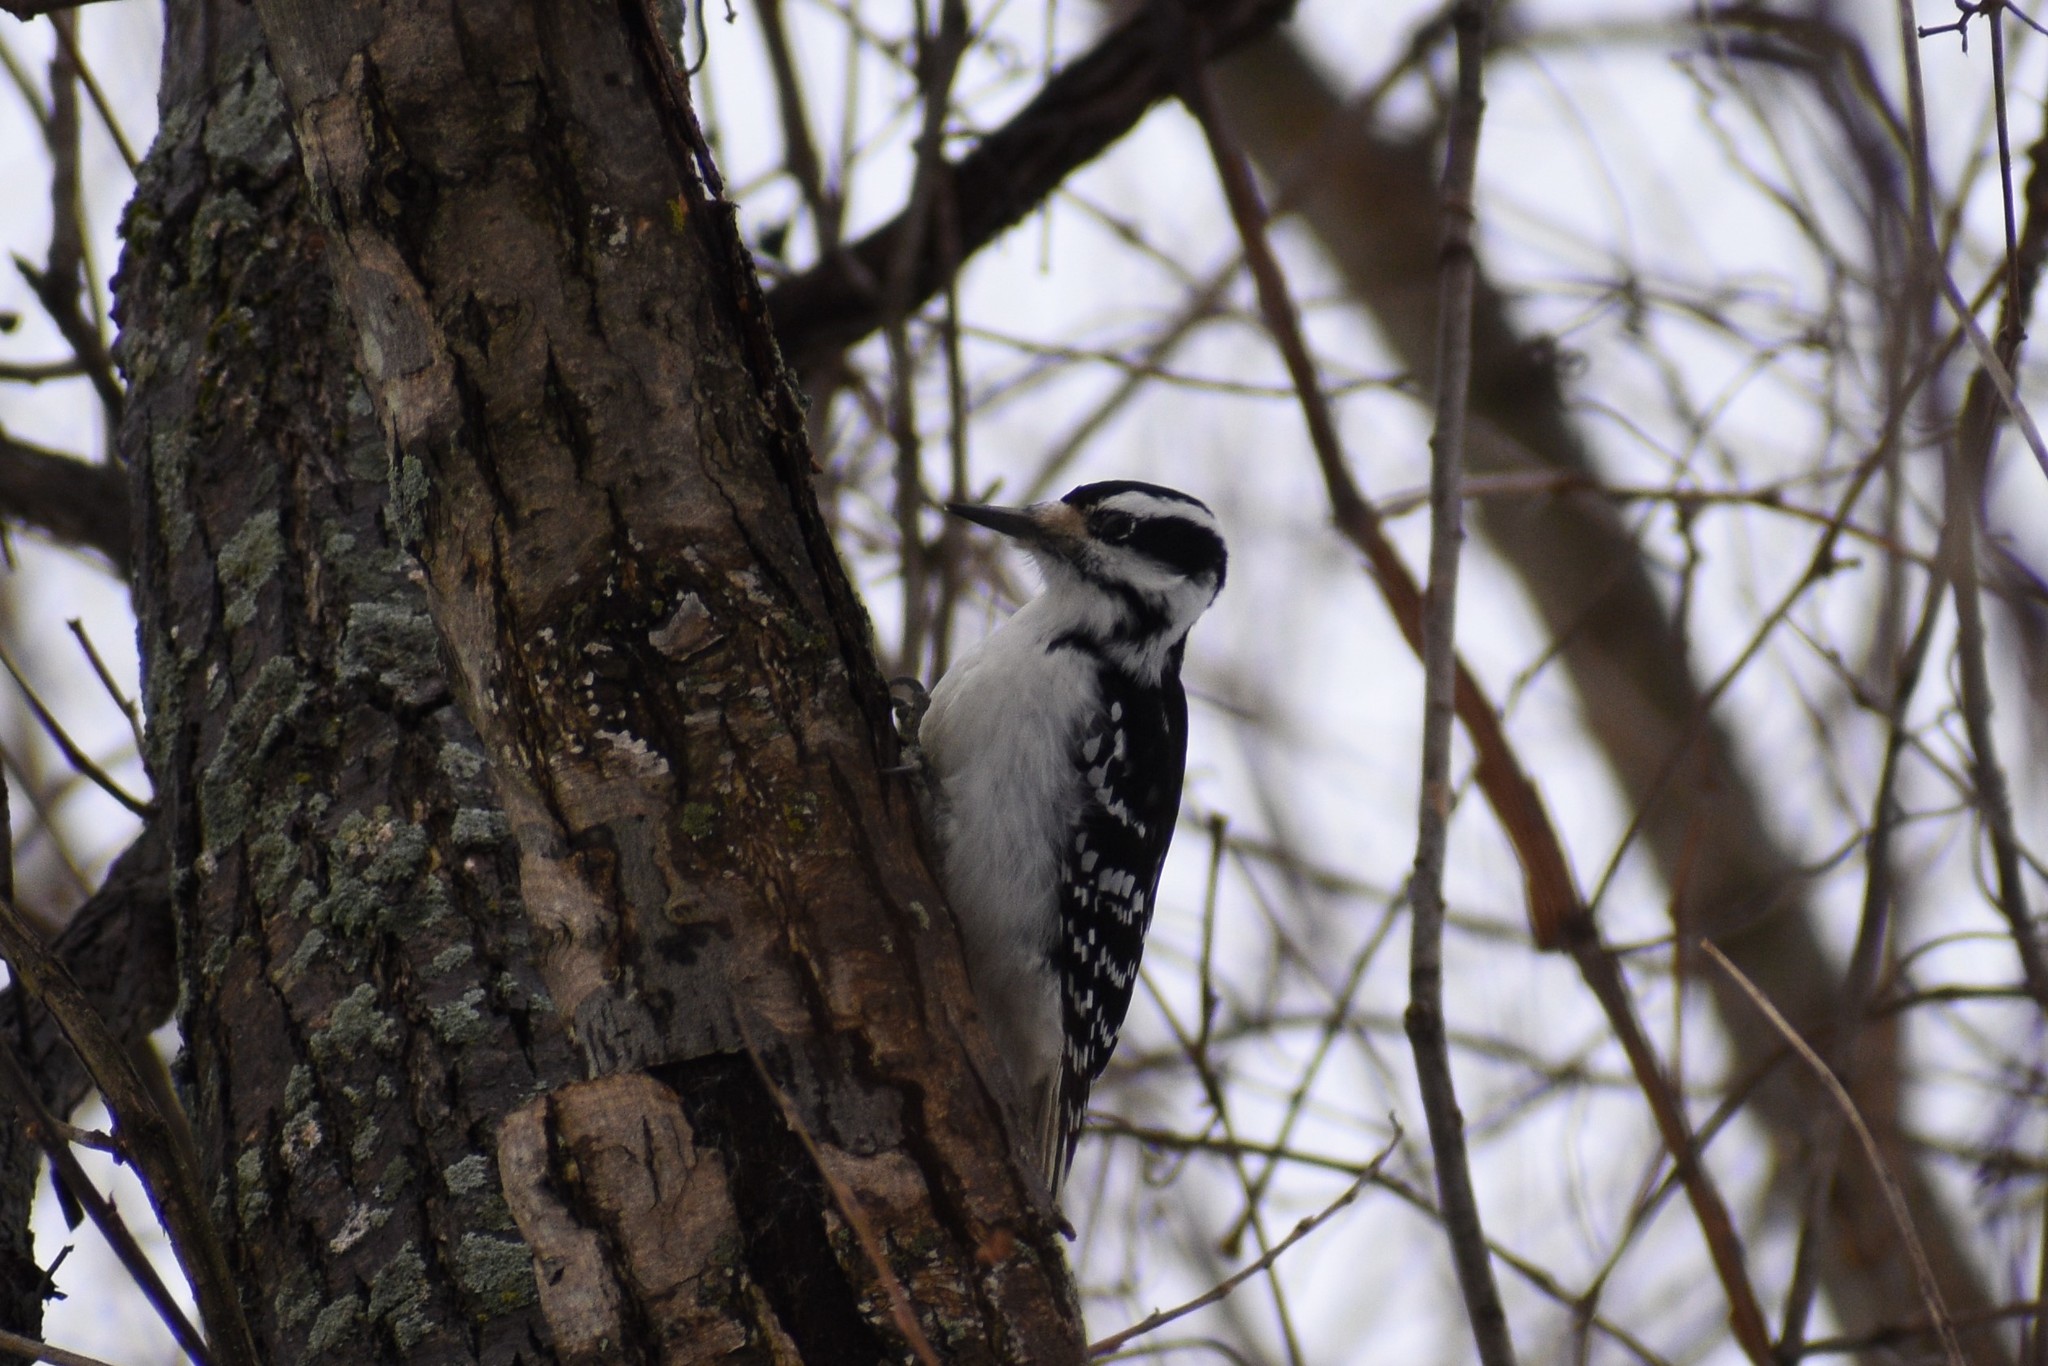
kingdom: Animalia
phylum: Chordata
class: Aves
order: Piciformes
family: Picidae
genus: Leuconotopicus
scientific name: Leuconotopicus villosus
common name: Hairy woodpecker
